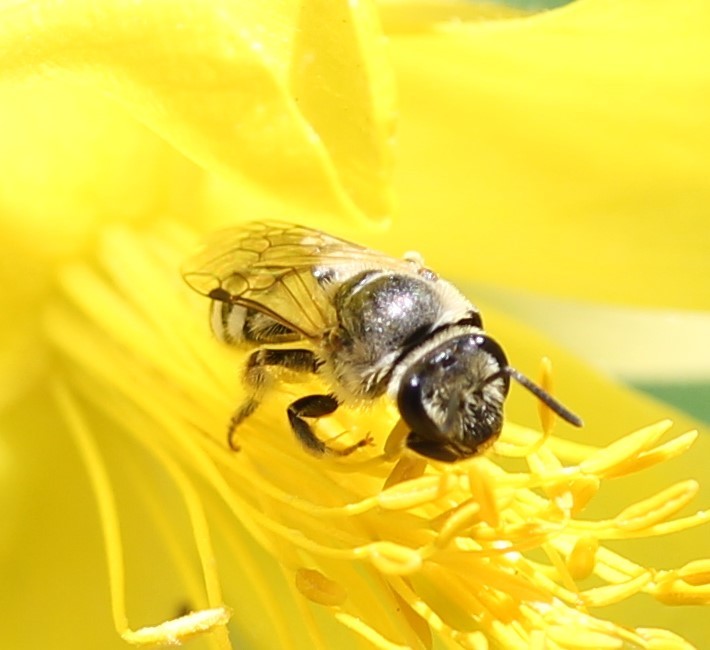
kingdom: Animalia
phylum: Arthropoda
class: Insecta
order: Hymenoptera
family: Halictidae
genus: Lasioglossum
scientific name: Lasioglossum sisymbrii
